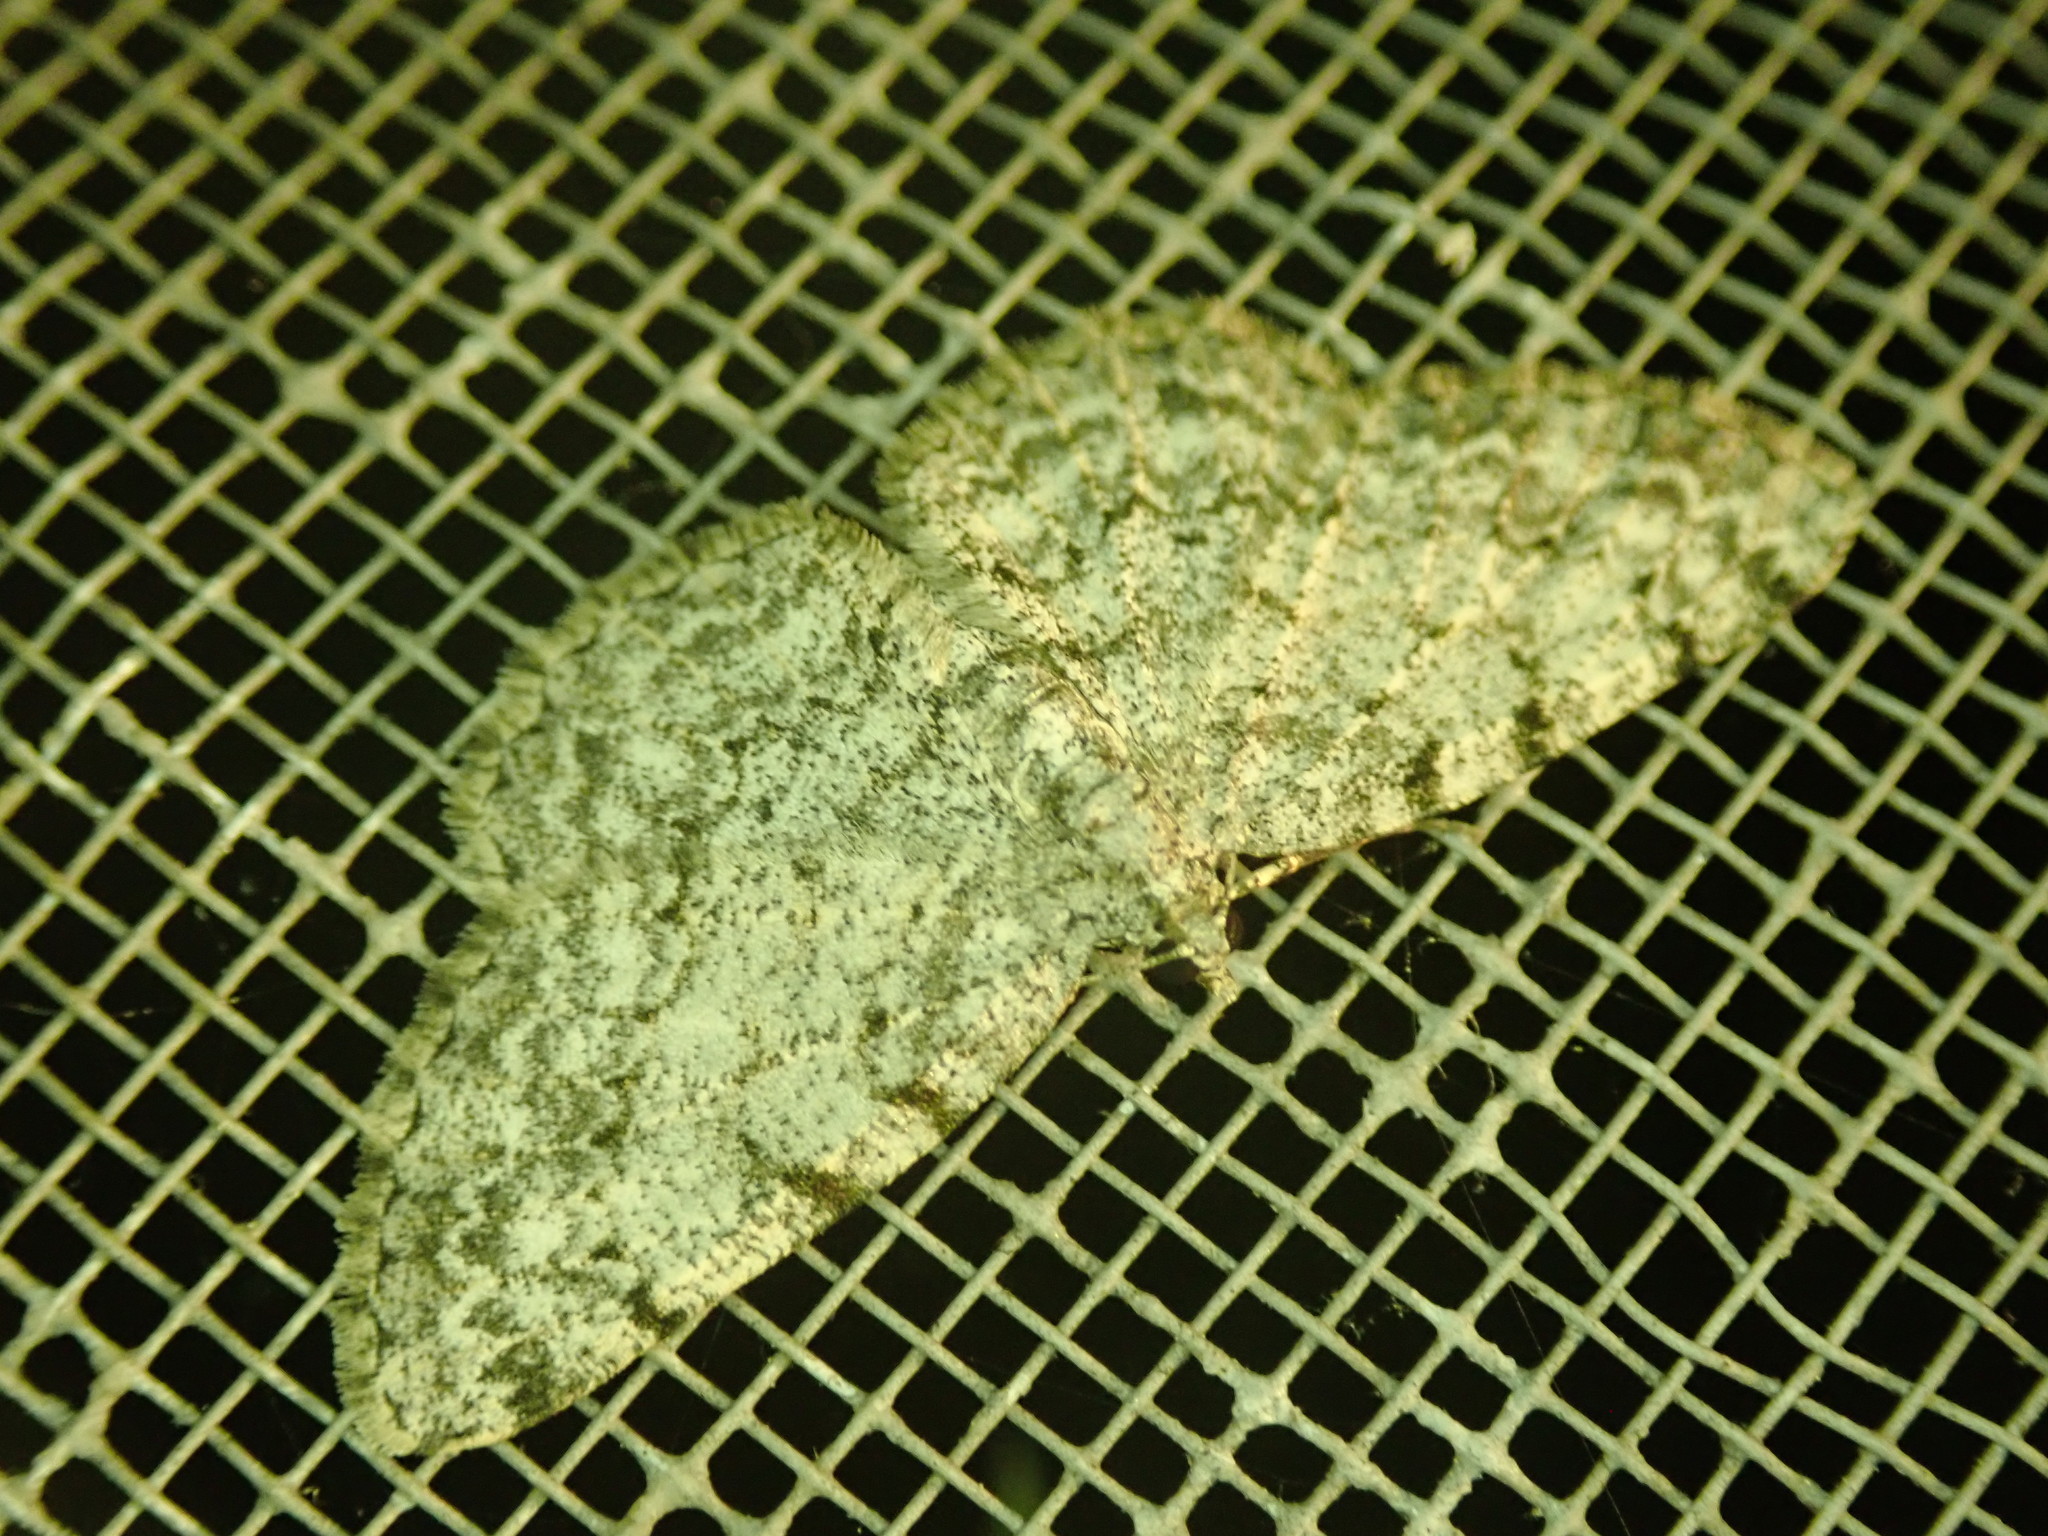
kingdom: Animalia
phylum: Arthropoda
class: Insecta
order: Lepidoptera
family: Geometridae
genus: Protoboarmia
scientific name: Protoboarmia porcelaria
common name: Porcelain gray
